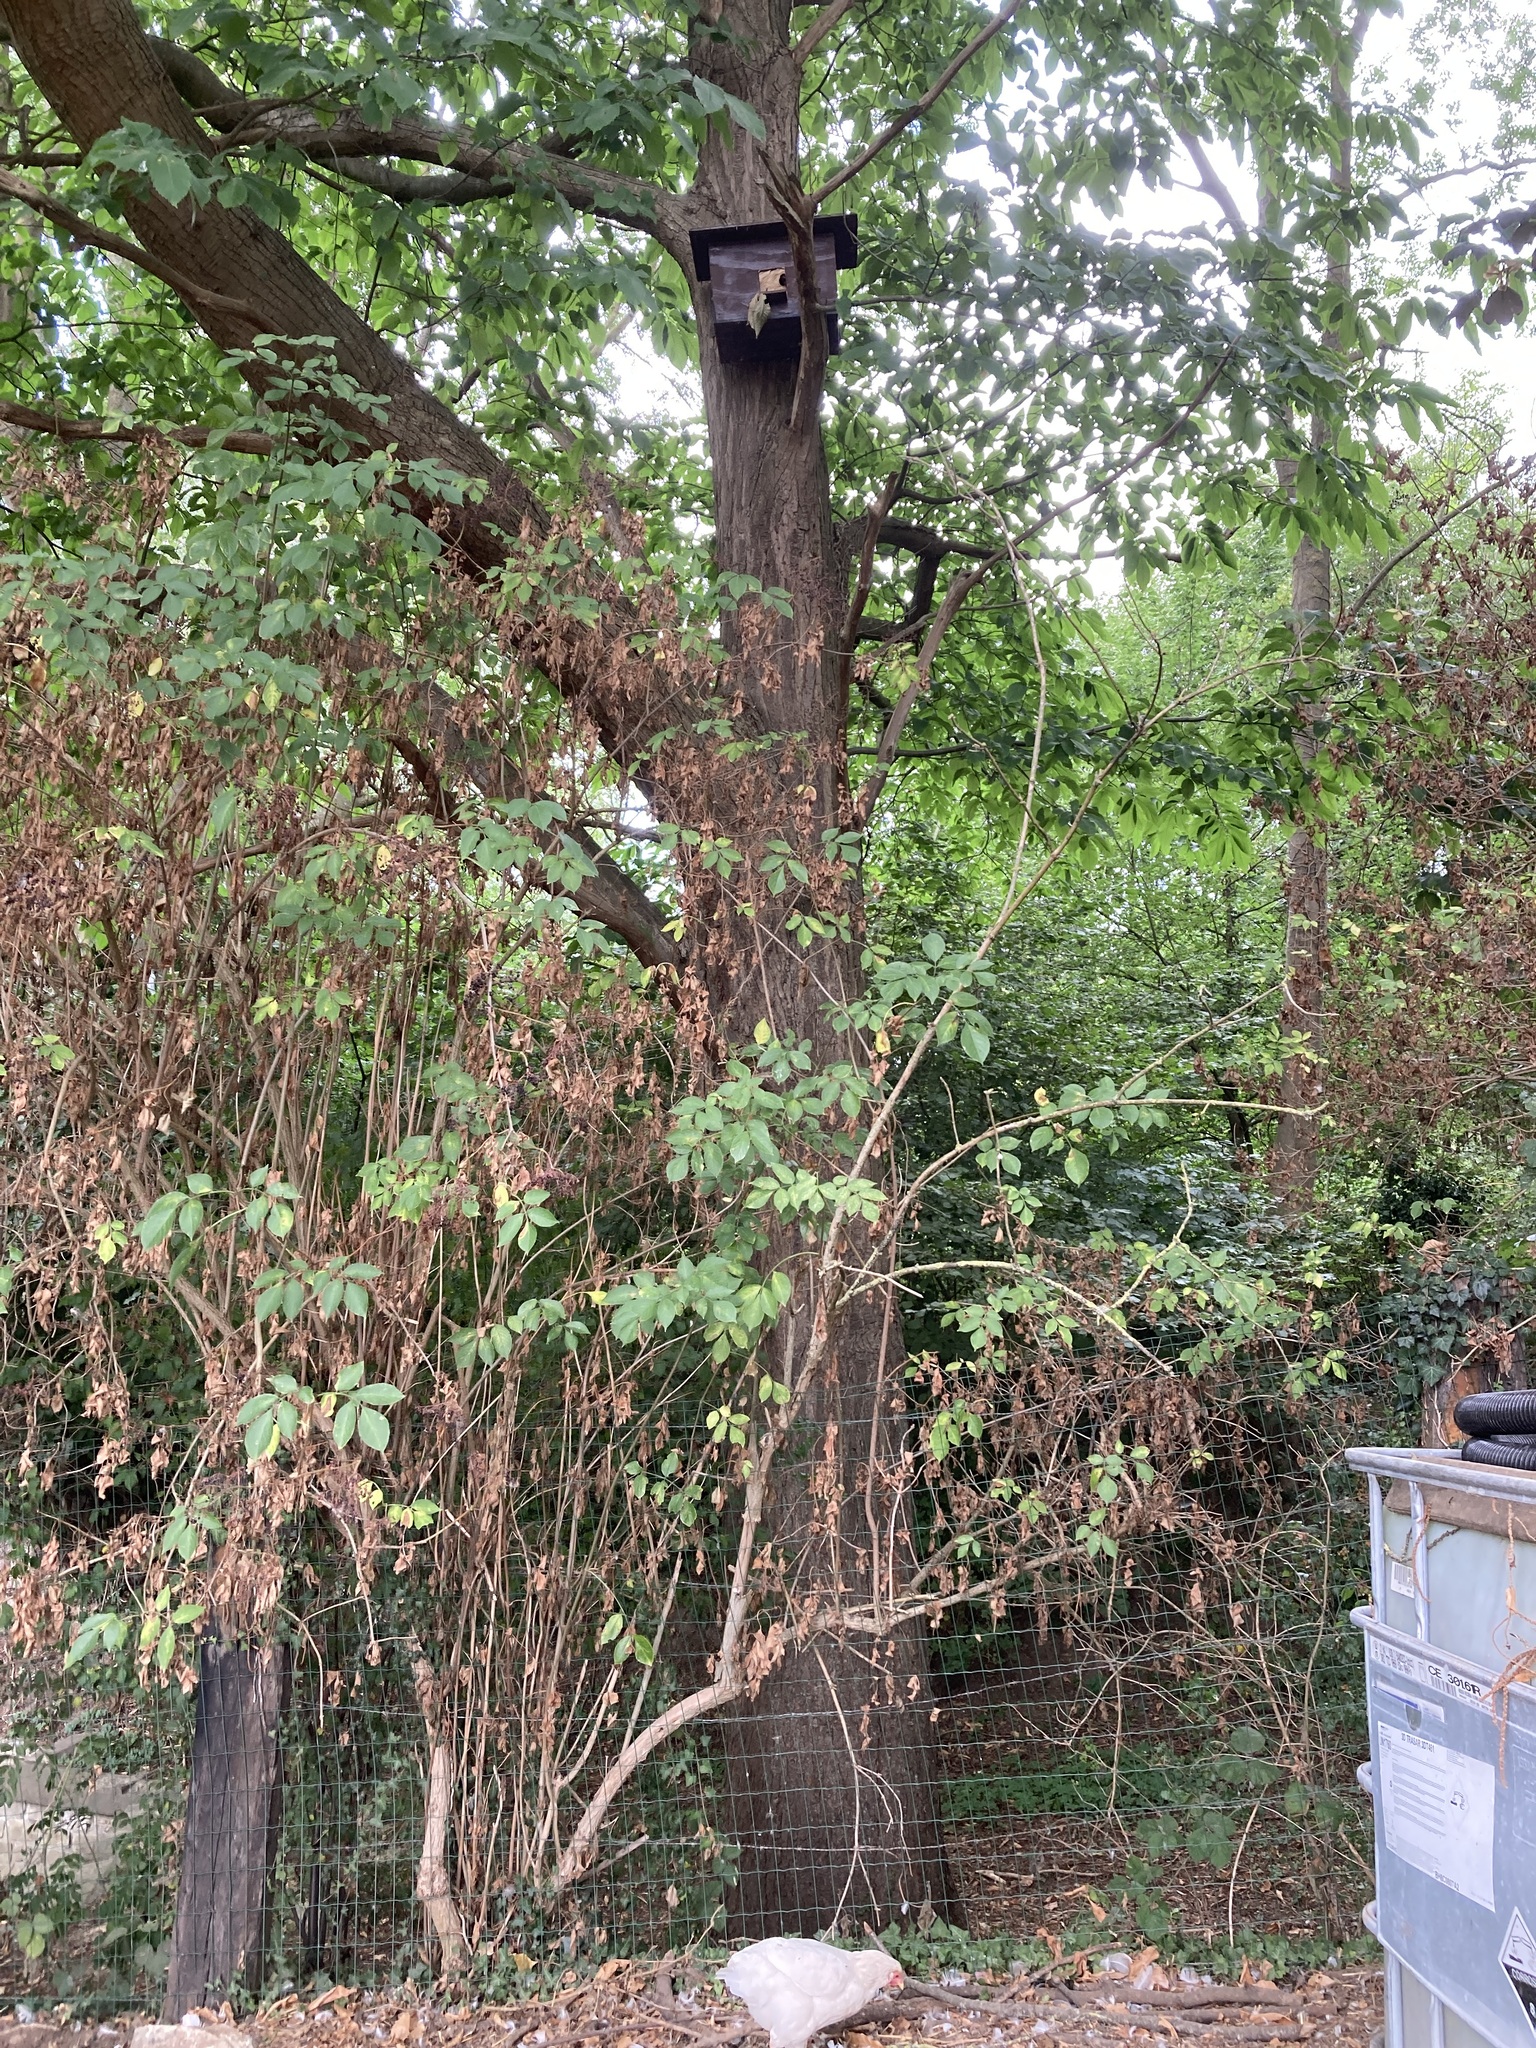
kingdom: Animalia
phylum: Arthropoda
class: Insecta
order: Hymenoptera
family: Vespidae
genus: Vespa
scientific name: Vespa crabro
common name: Hornet
